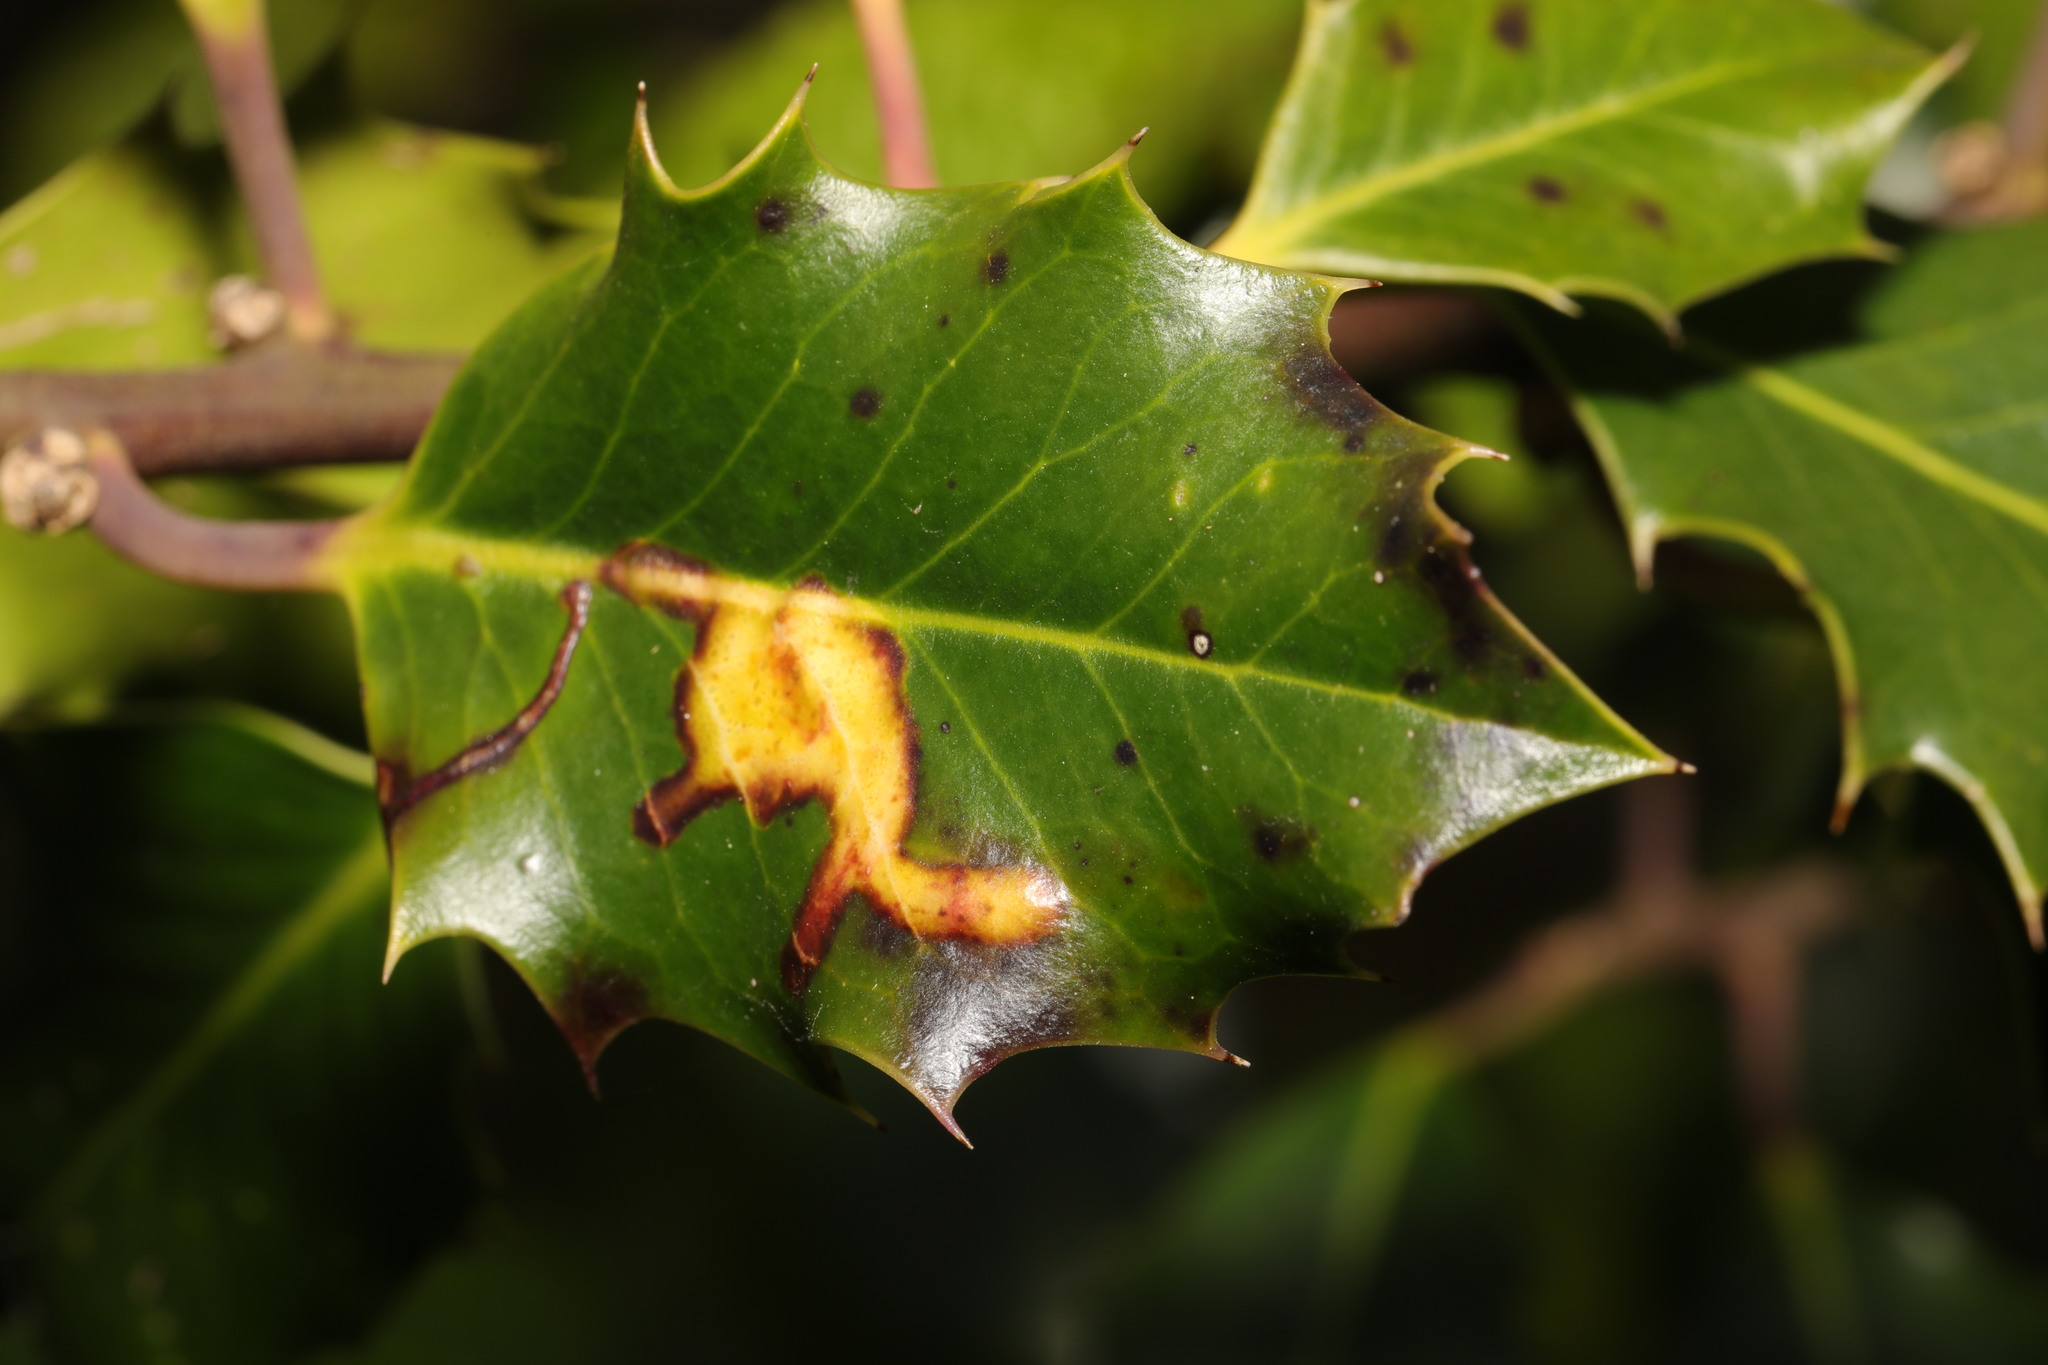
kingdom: Animalia
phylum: Arthropoda
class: Insecta
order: Diptera
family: Agromyzidae
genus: Phytomyza
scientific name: Phytomyza ilicis
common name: Holly leafminer
